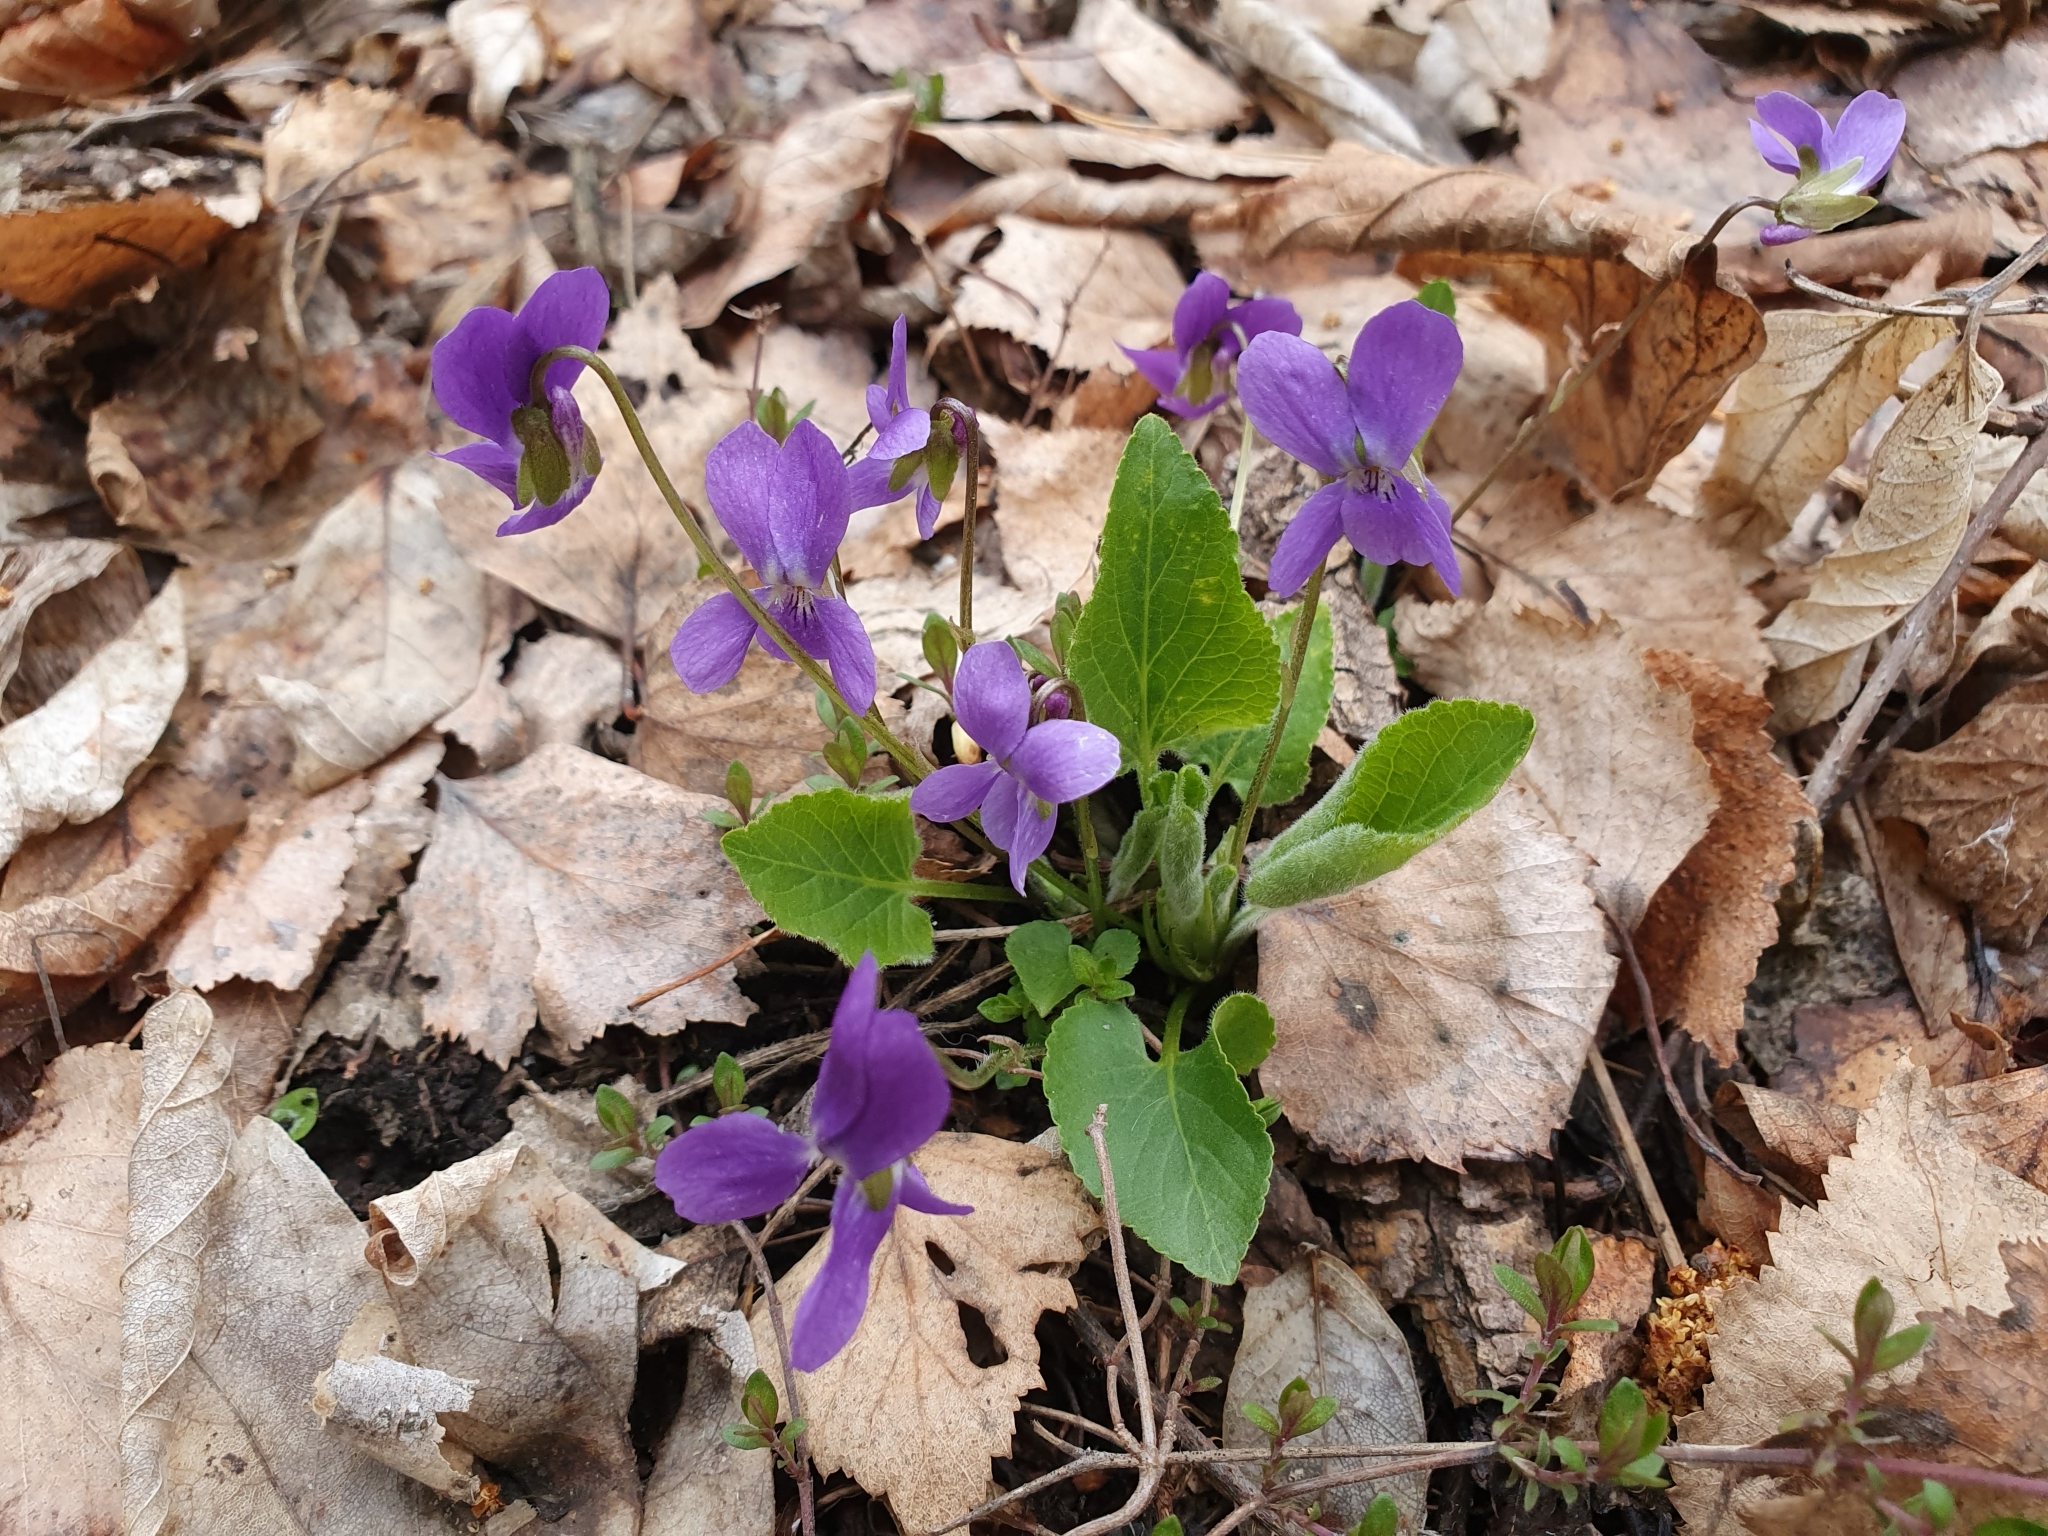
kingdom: Plantae
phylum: Tracheophyta
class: Magnoliopsida
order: Malpighiales
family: Violaceae
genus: Viola
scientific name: Viola hirta
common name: Hairy violet
